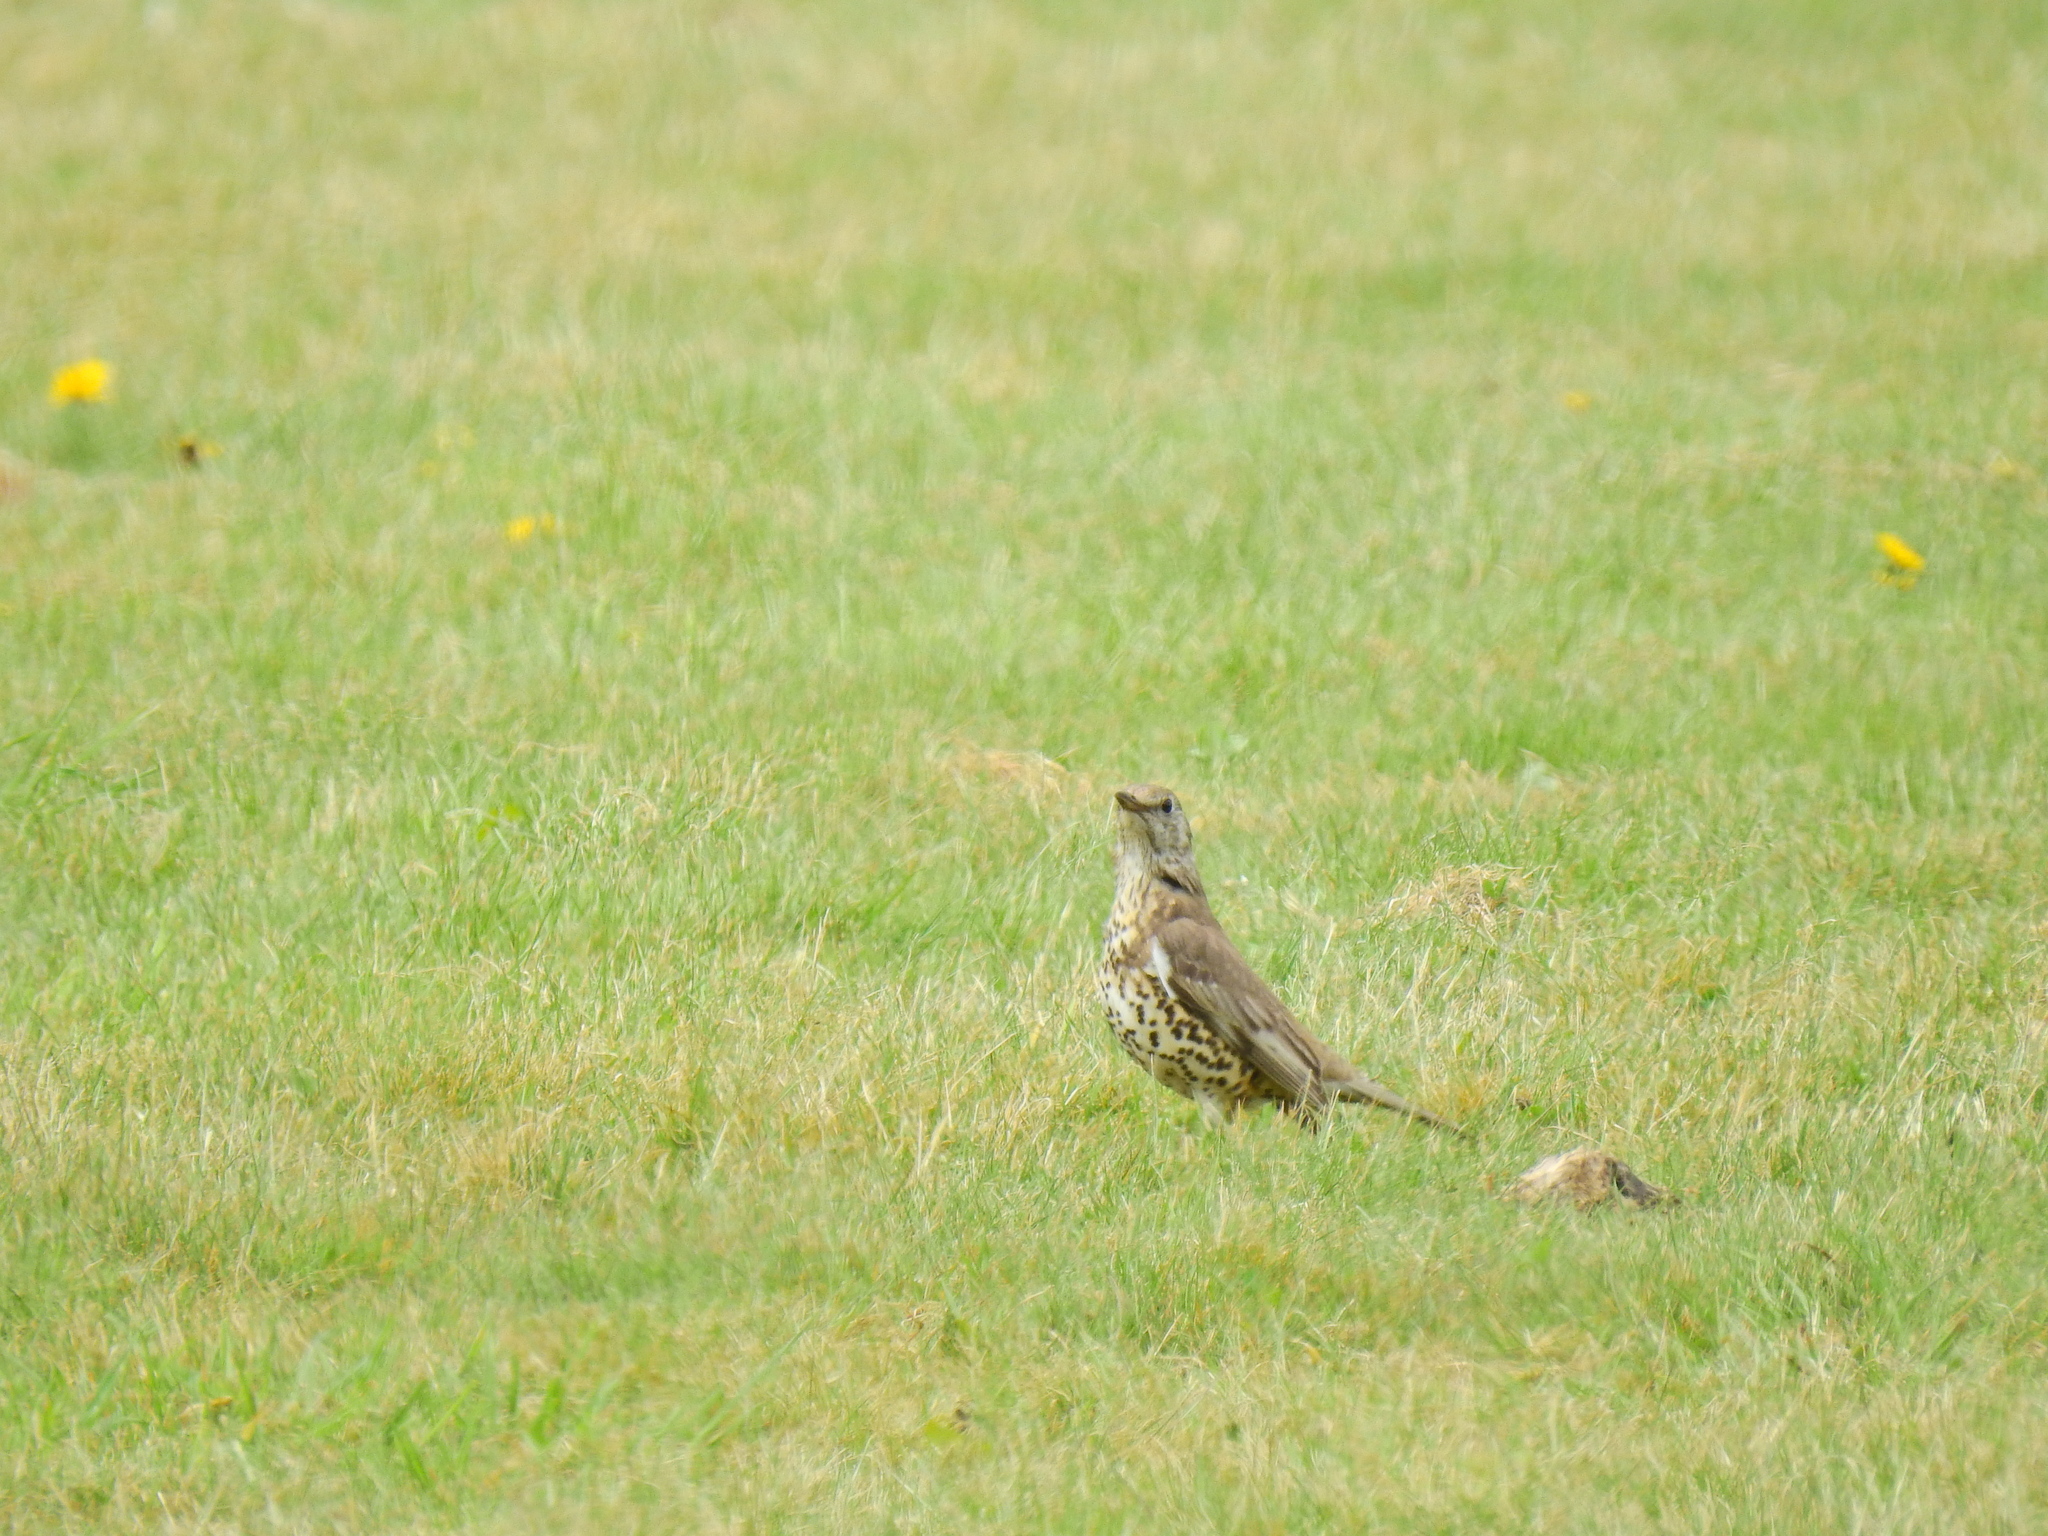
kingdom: Animalia
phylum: Chordata
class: Aves
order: Passeriformes
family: Turdidae
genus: Turdus
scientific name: Turdus viscivorus
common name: Mistle thrush
